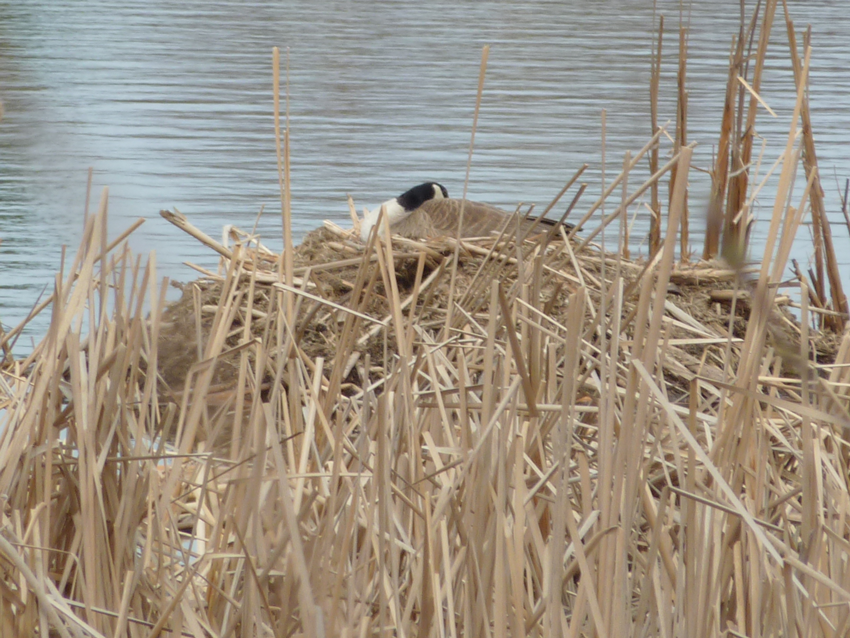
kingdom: Animalia
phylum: Chordata
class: Aves
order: Anseriformes
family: Anatidae
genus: Branta
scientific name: Branta canadensis
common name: Canada goose
